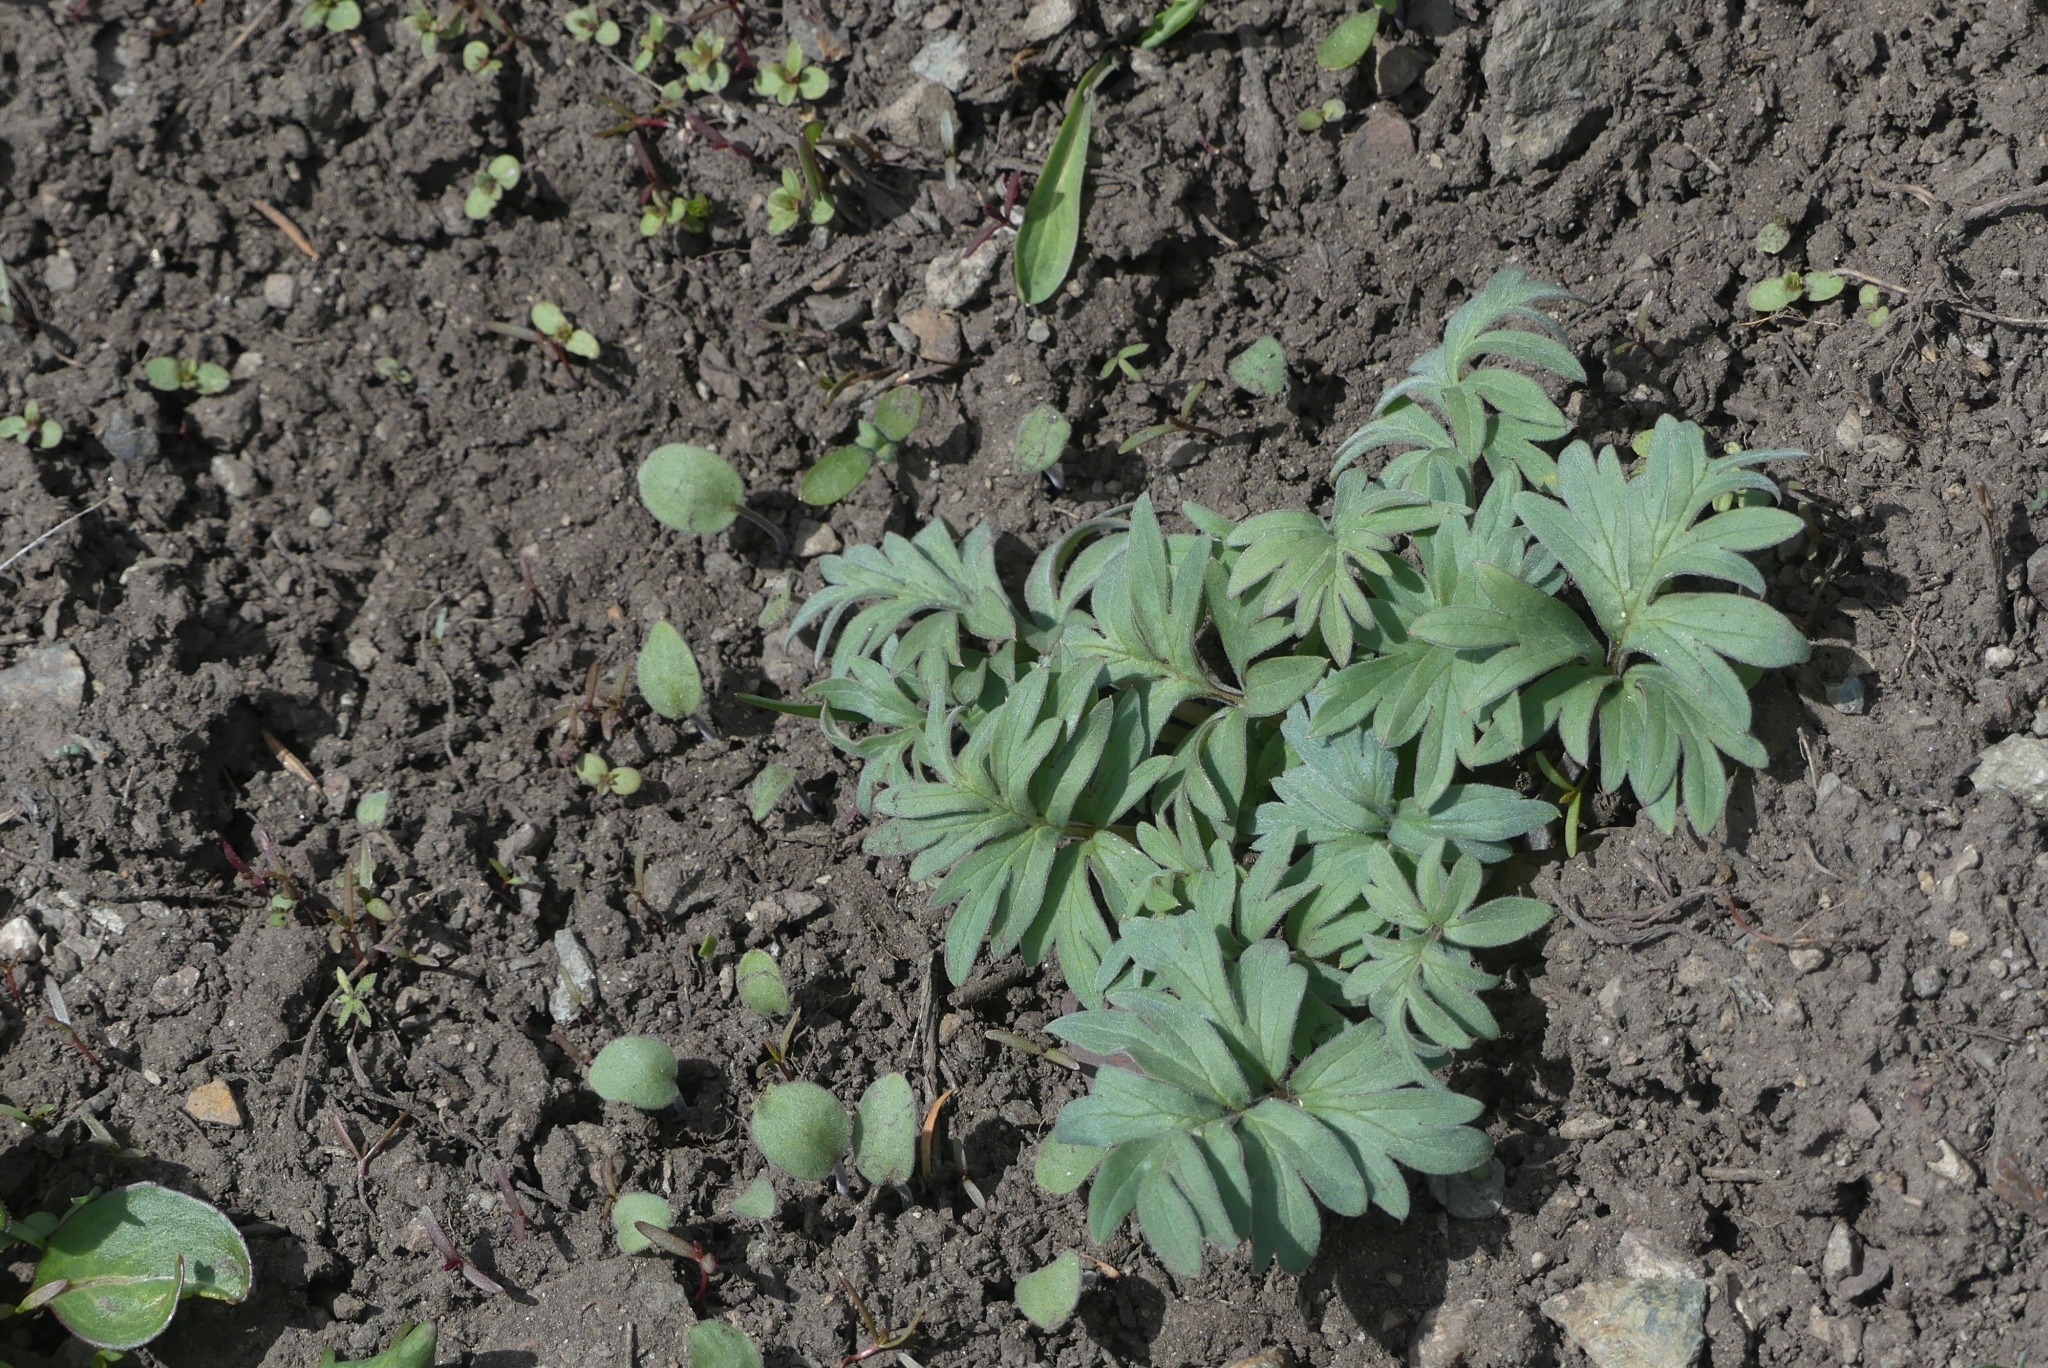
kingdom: Plantae
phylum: Tracheophyta
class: Magnoliopsida
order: Boraginales
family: Hydrophyllaceae
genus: Hydrophyllum
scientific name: Hydrophyllum capitatum
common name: Woollen-breeches
